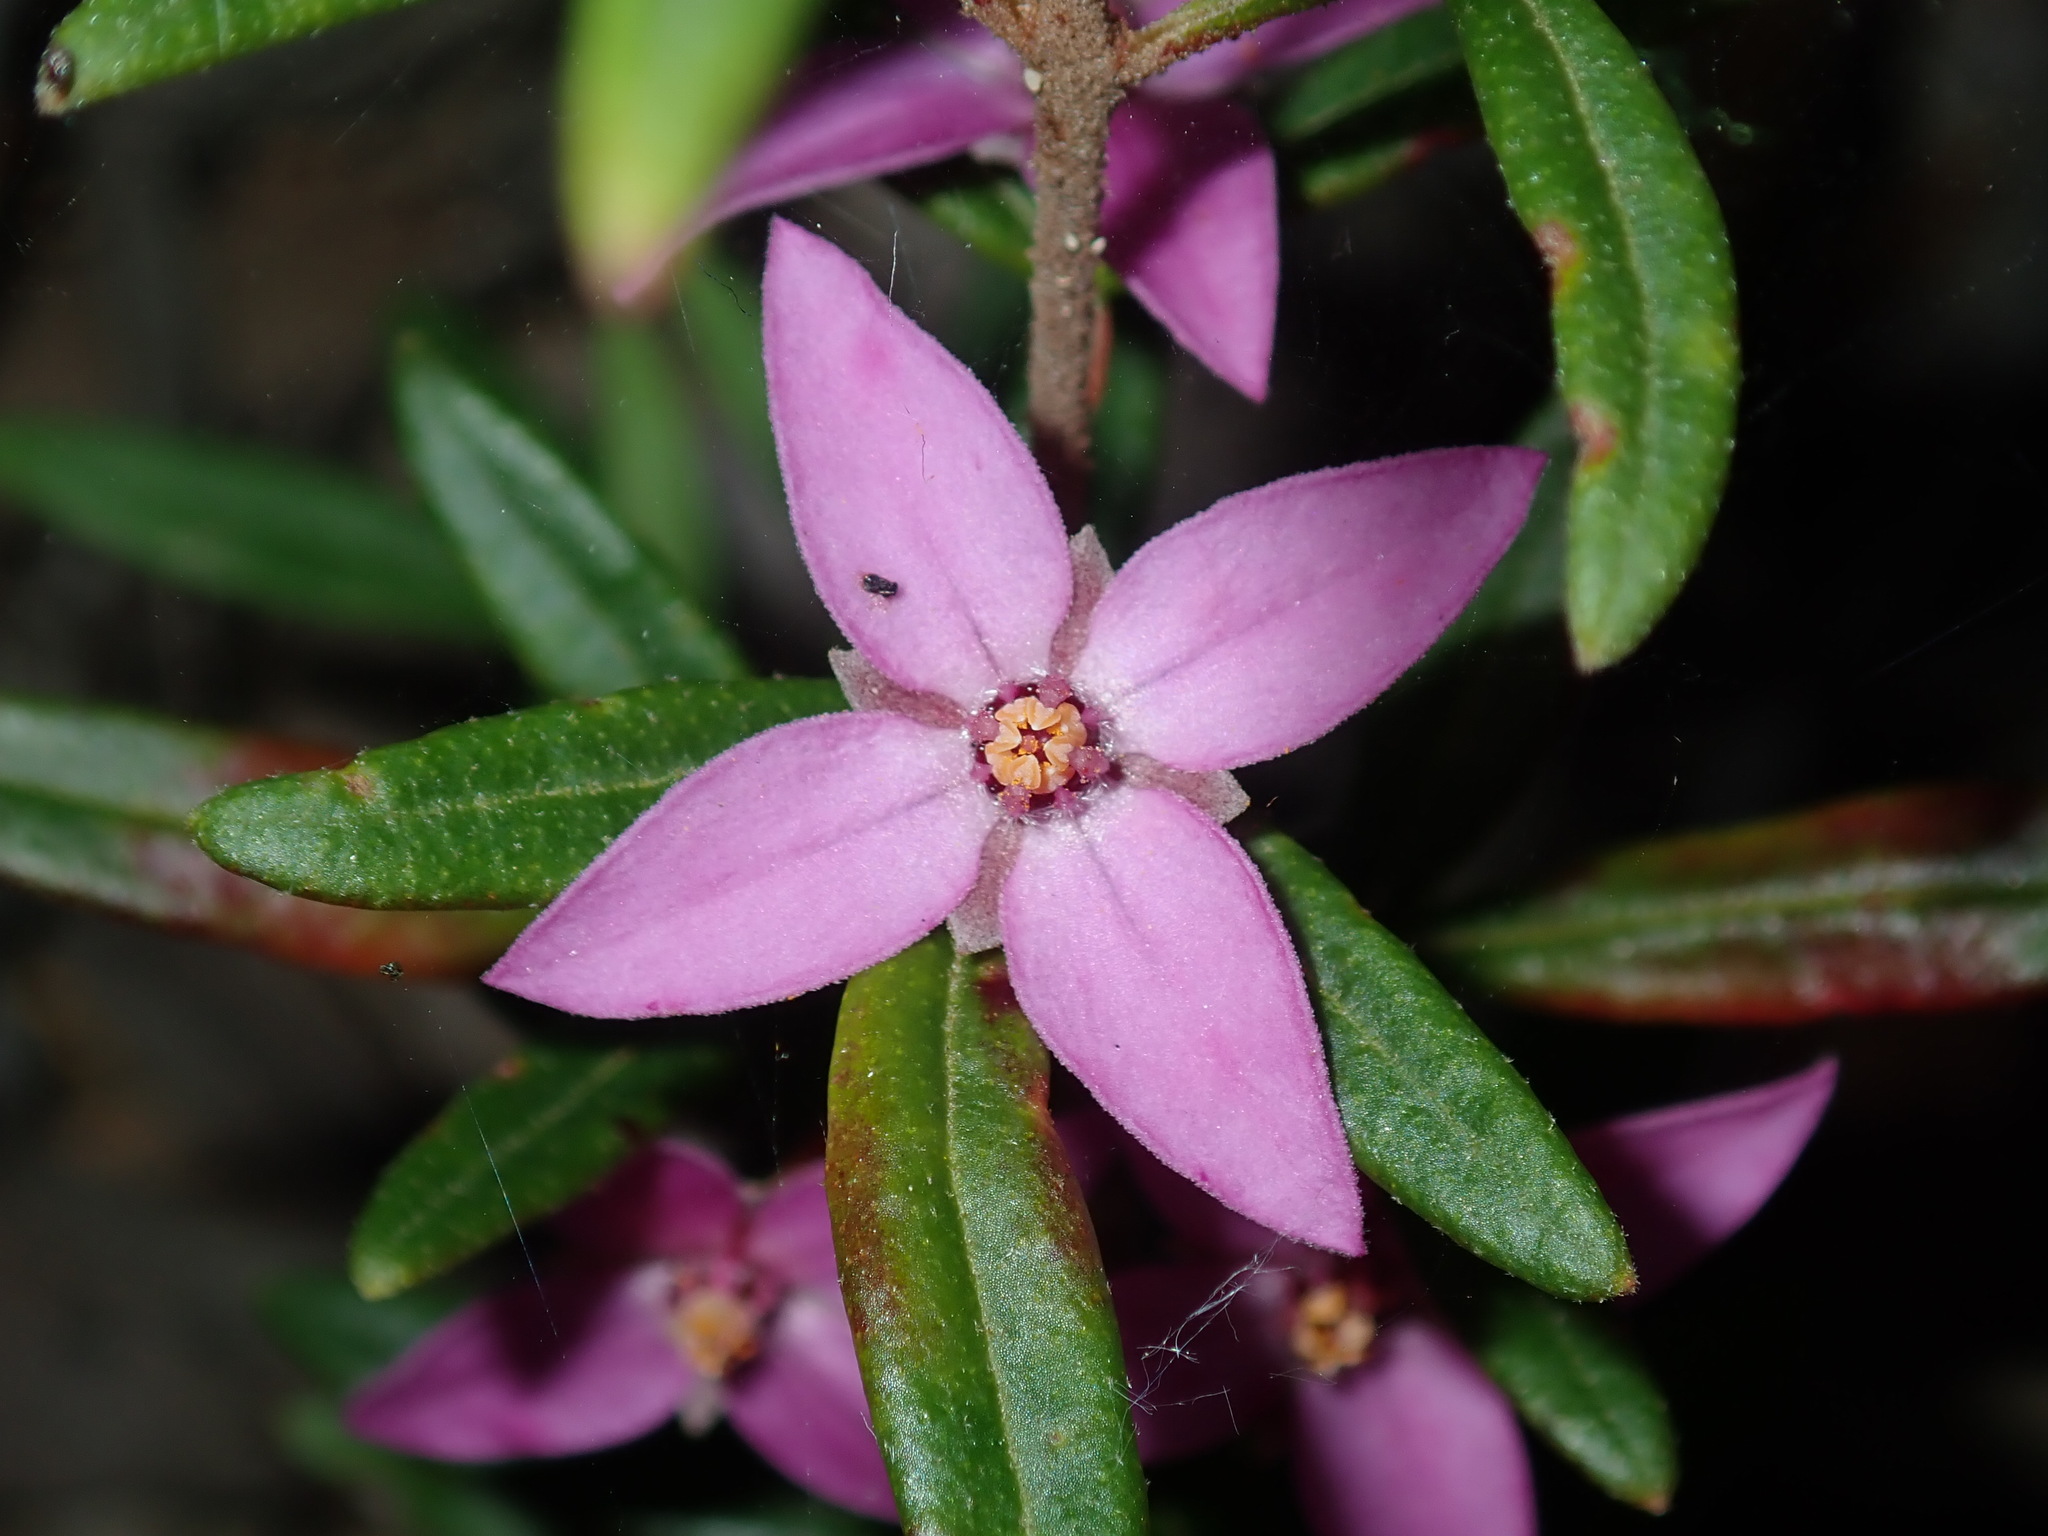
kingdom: Plantae
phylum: Tracheophyta
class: Magnoliopsida
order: Sapindales
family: Rutaceae
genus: Boronia
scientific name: Boronia ledifolia
